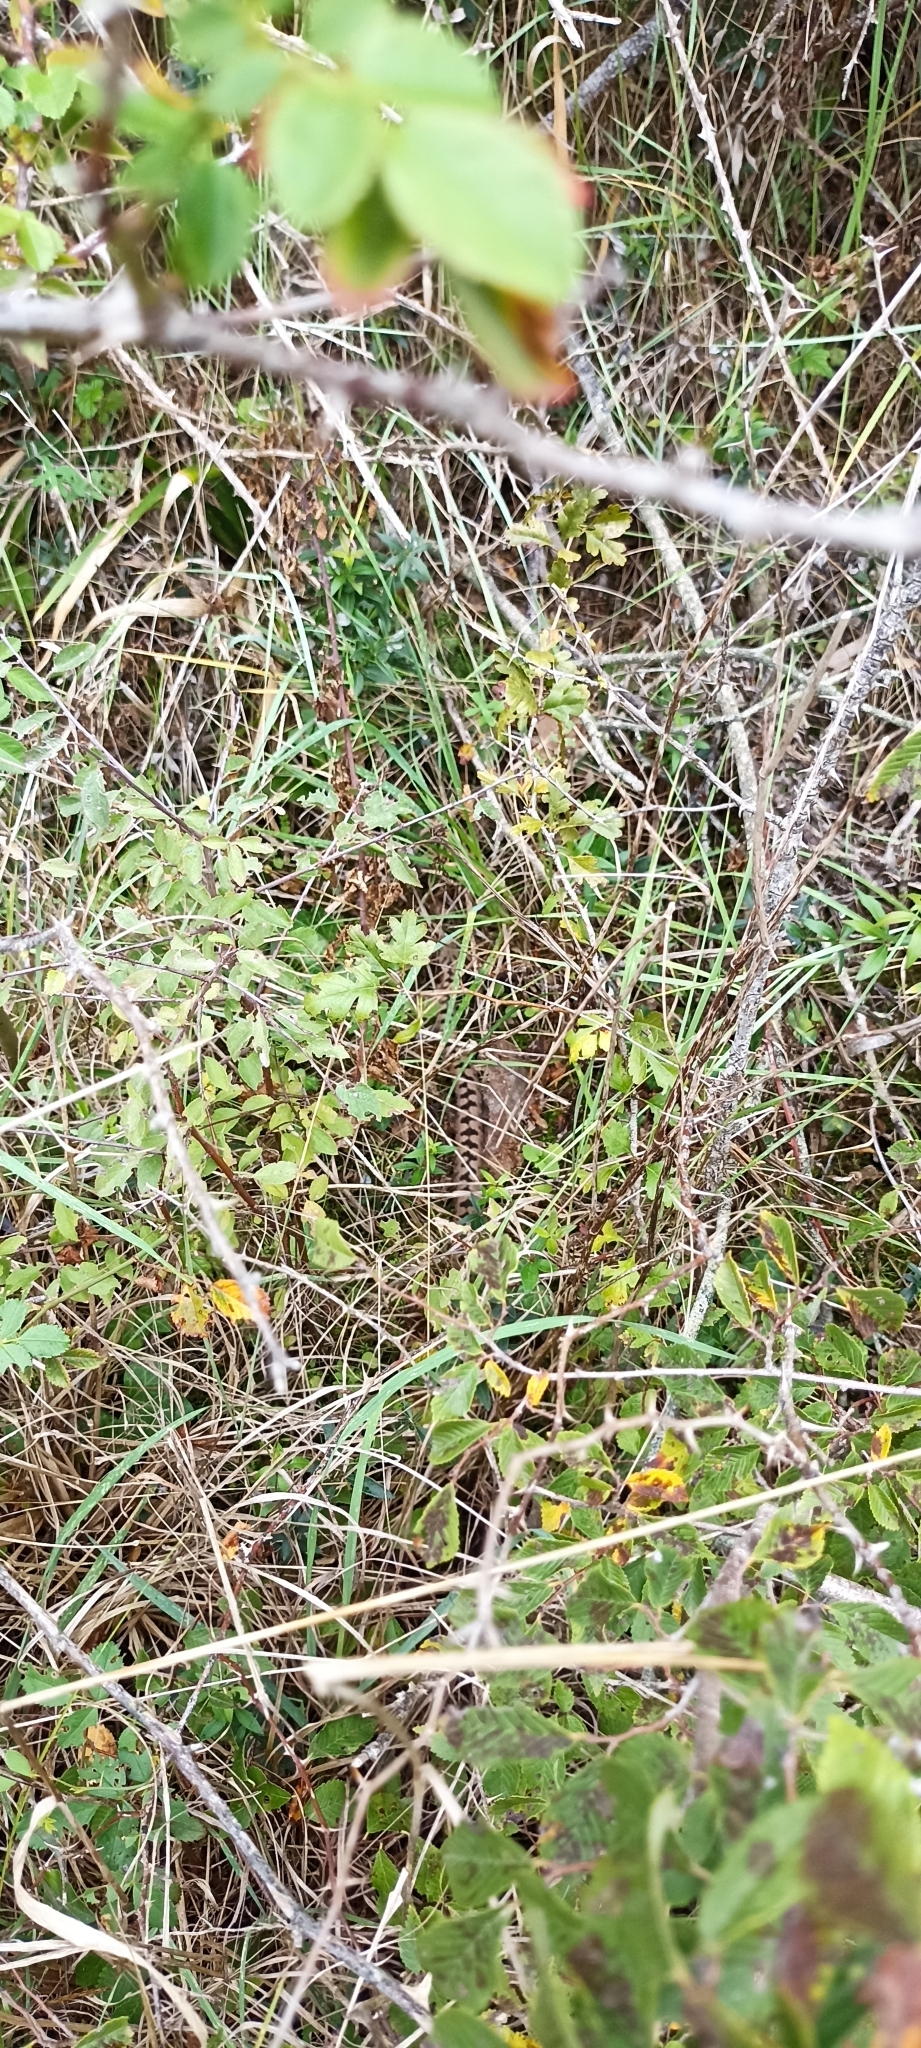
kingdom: Animalia
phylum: Chordata
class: Squamata
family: Viperidae
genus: Vipera
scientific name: Vipera aspis
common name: Asp viper
